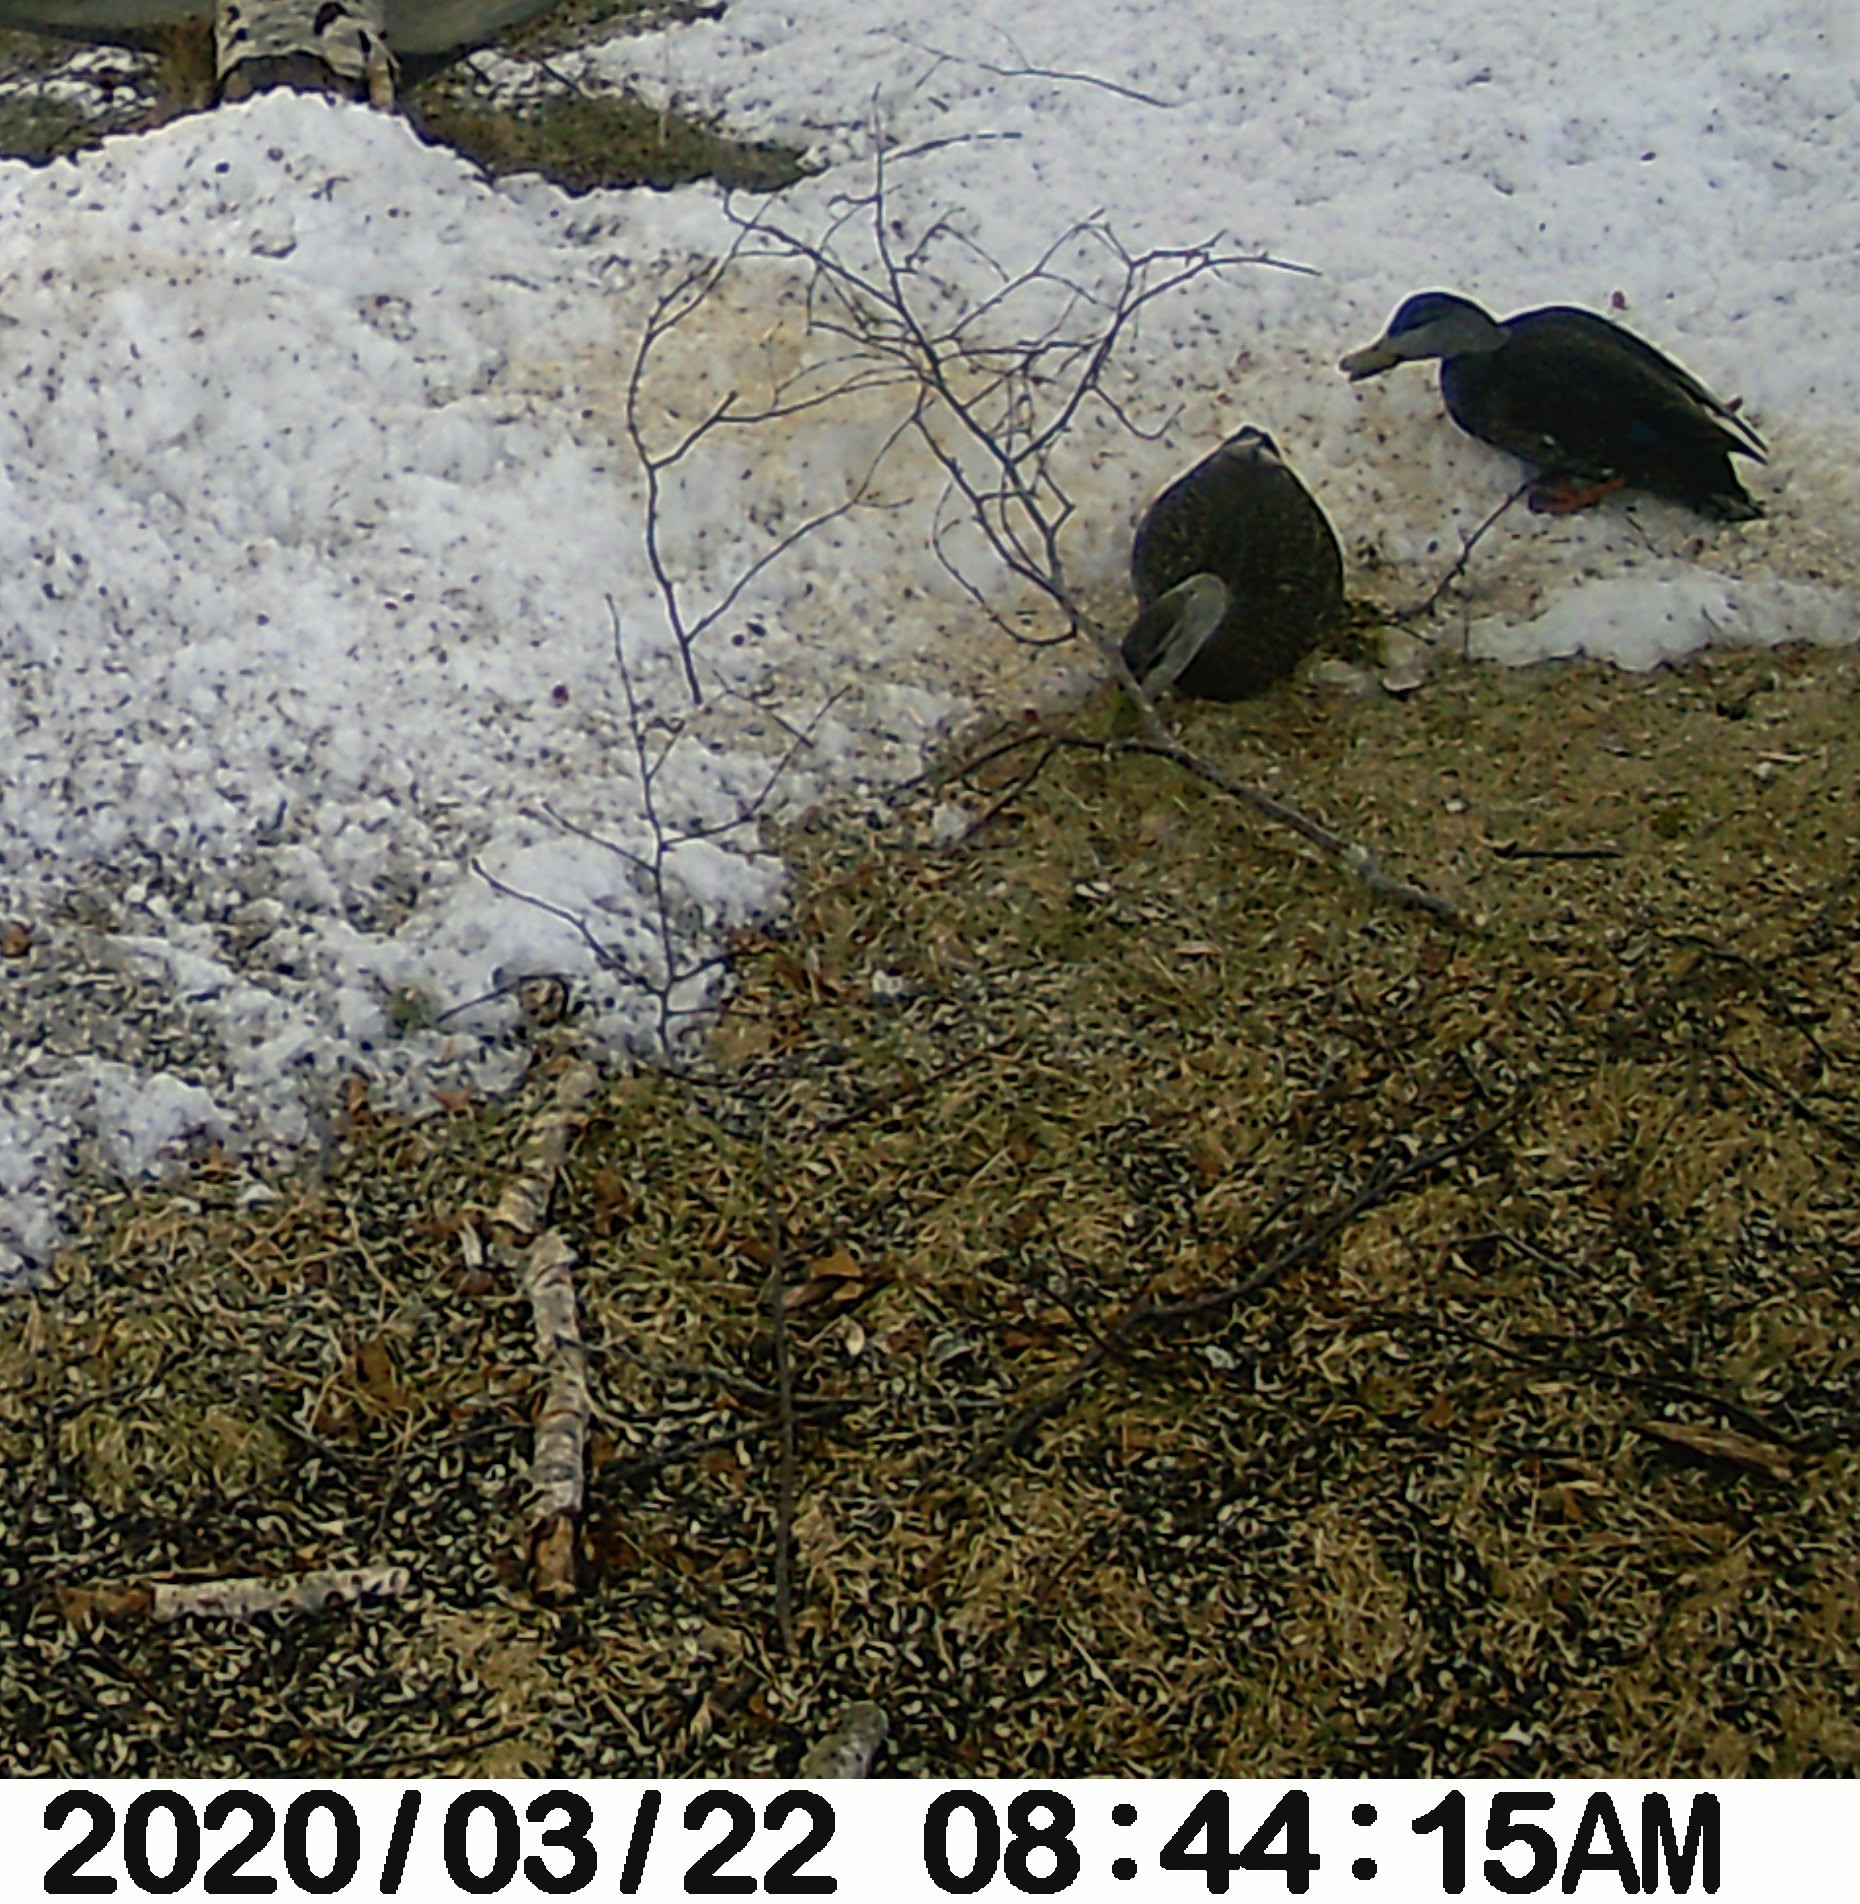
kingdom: Animalia
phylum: Chordata
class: Aves
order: Anseriformes
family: Anatidae
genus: Anas
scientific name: Anas rubripes
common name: American black duck
